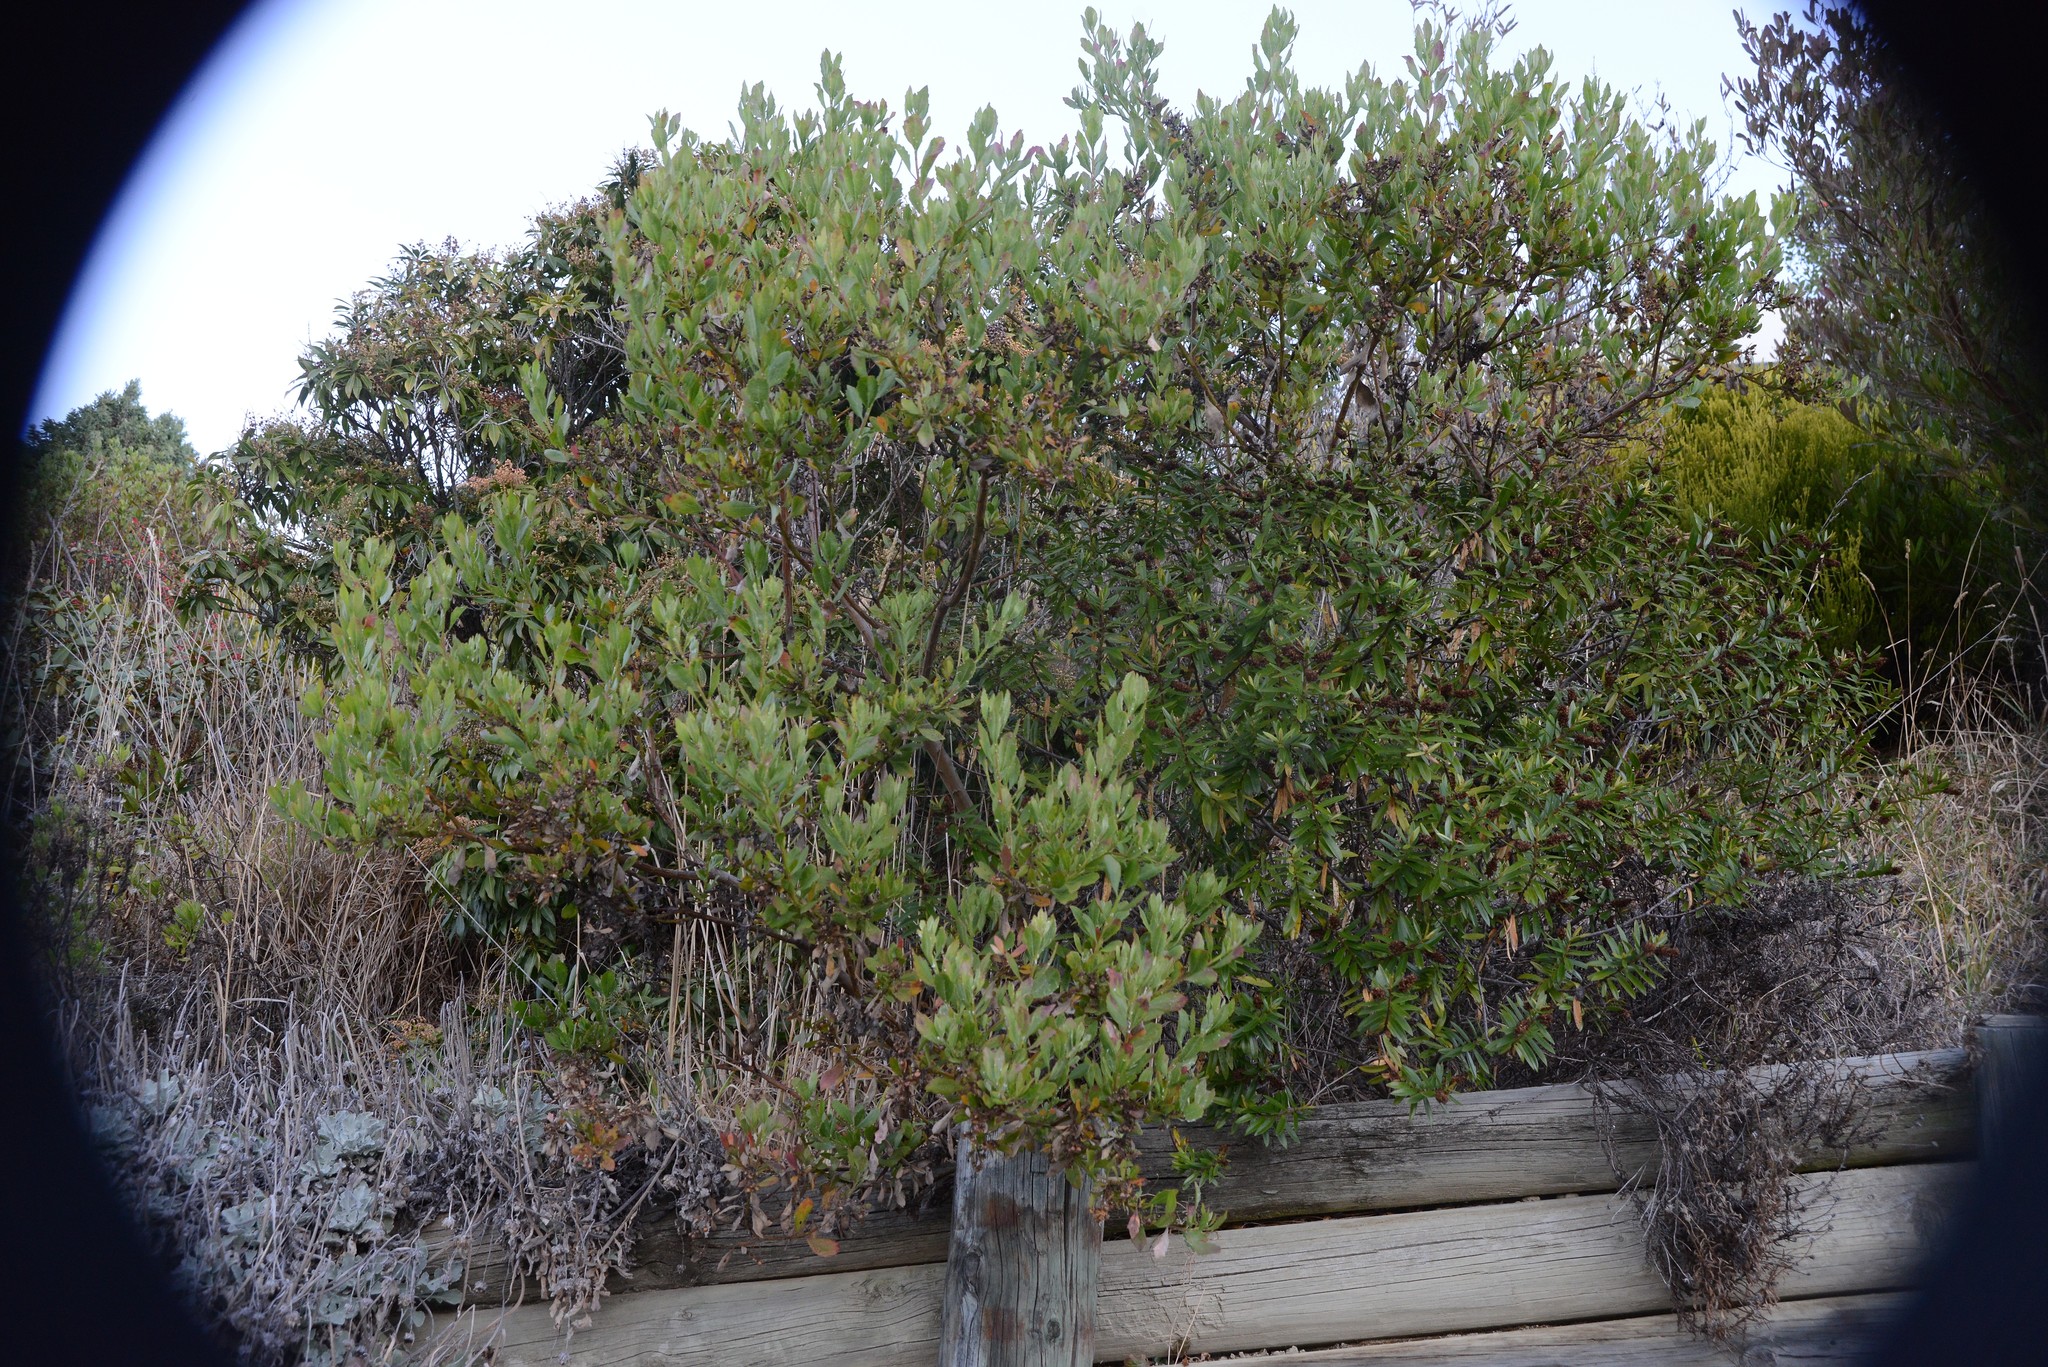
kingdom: Plantae
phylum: Tracheophyta
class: Magnoliopsida
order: Asterales
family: Asteraceae
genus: Osteospermum
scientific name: Osteospermum moniliferum
